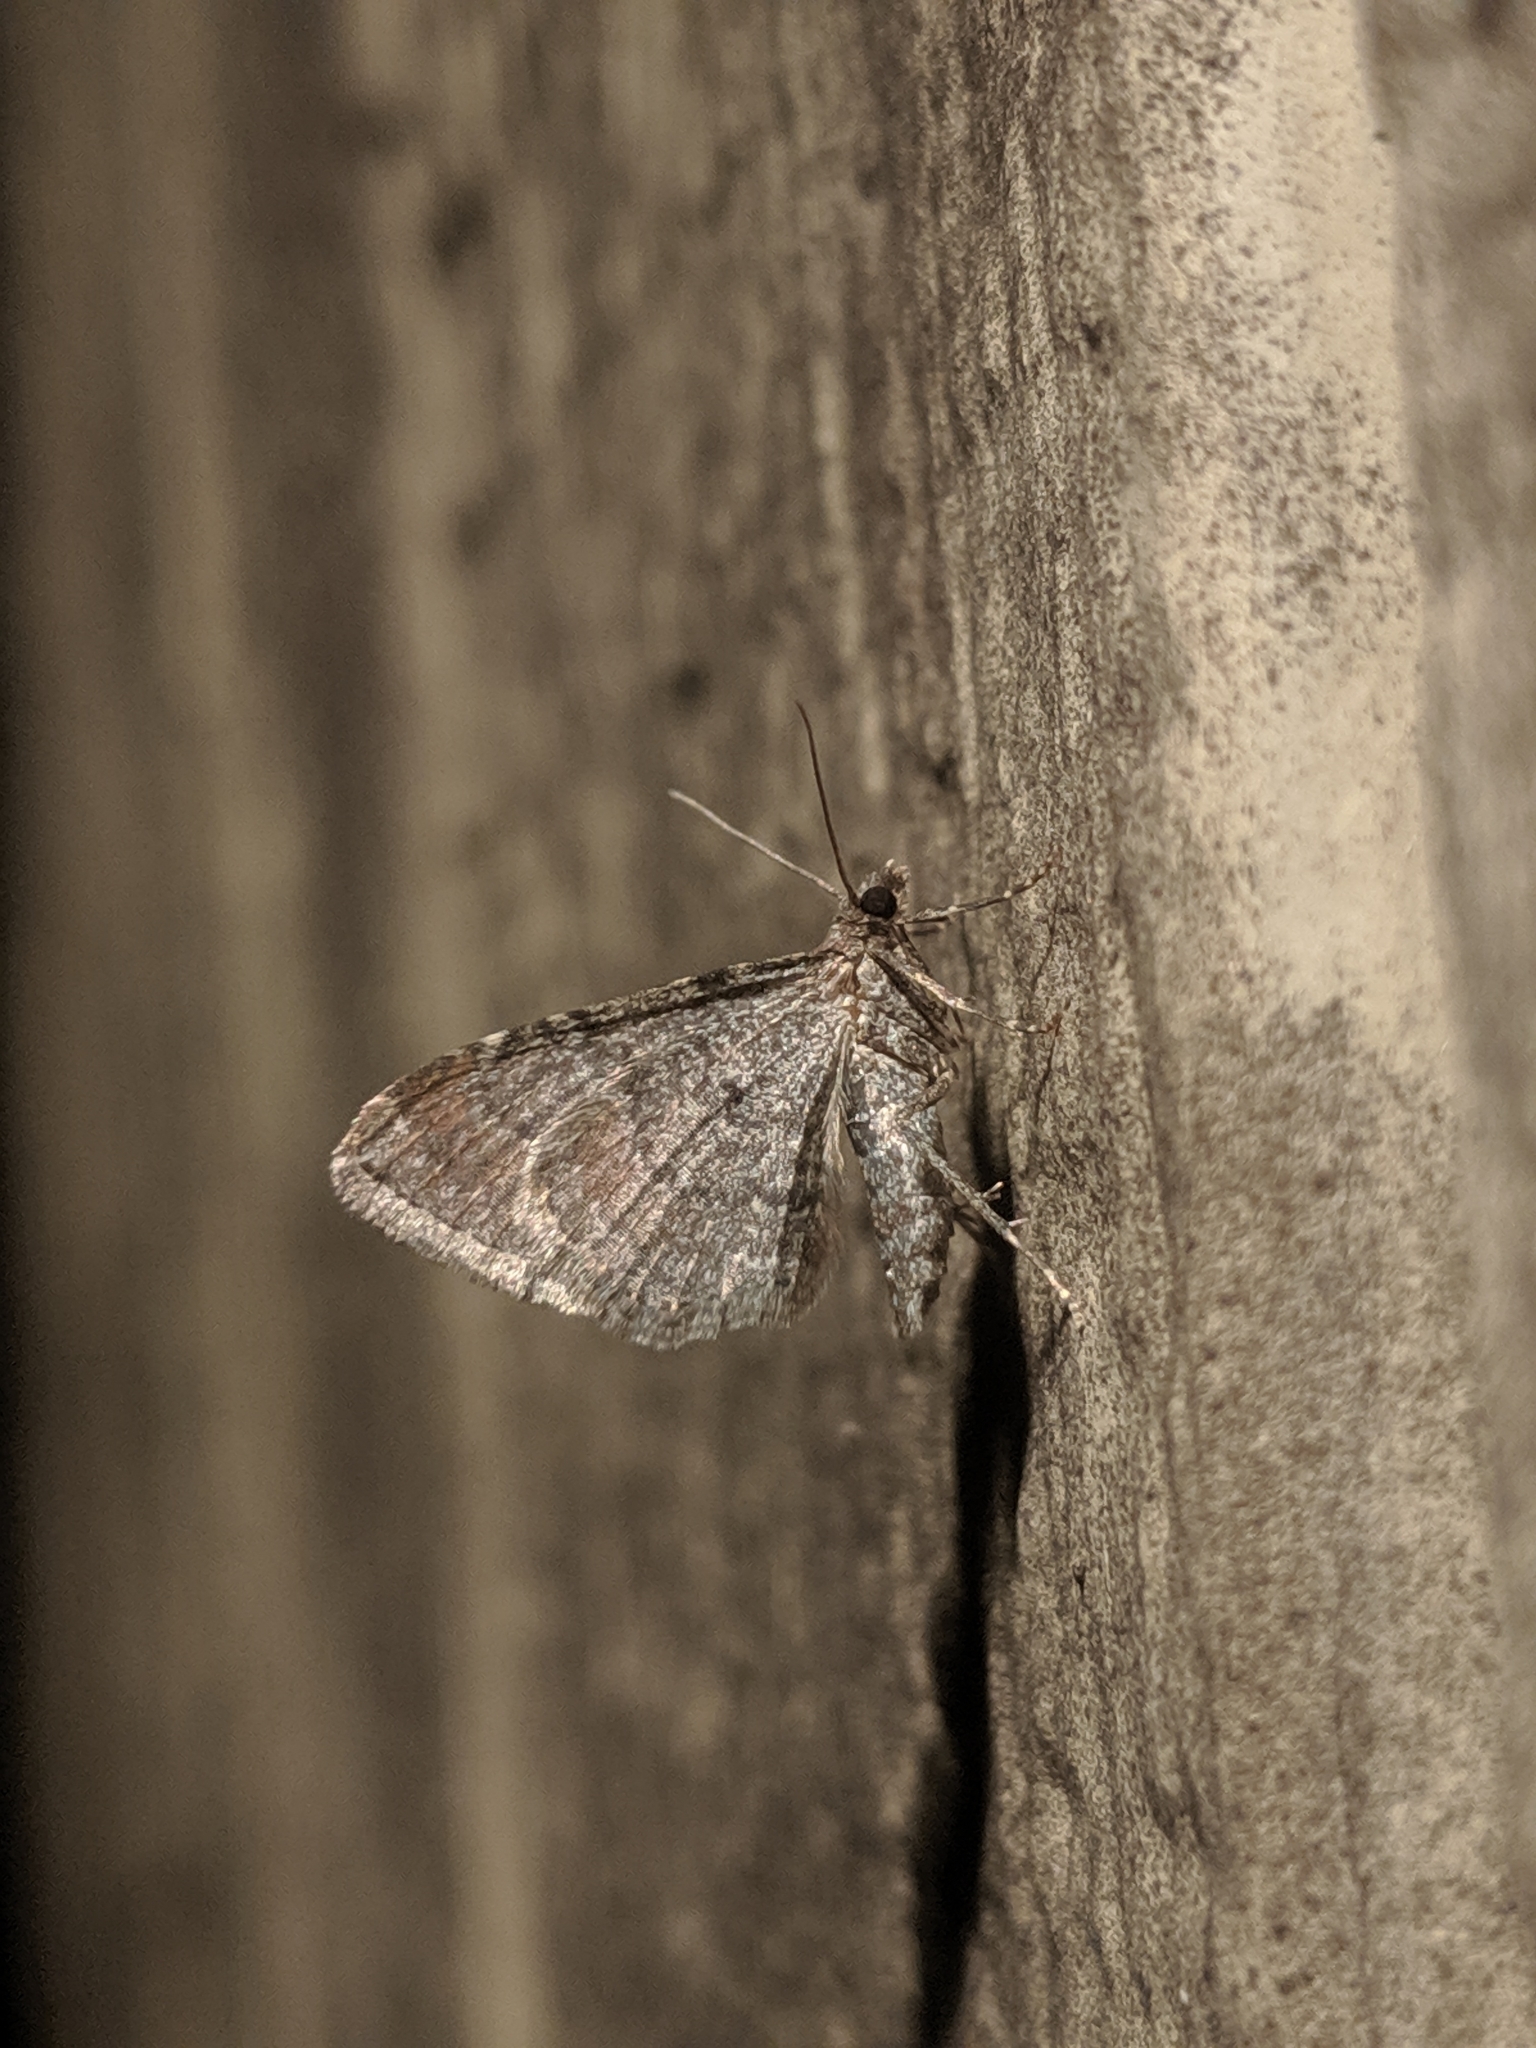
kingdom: Animalia
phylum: Arthropoda
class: Insecta
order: Lepidoptera
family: Geometridae
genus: Orthonama
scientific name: Orthonama obstipata
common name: The gem
